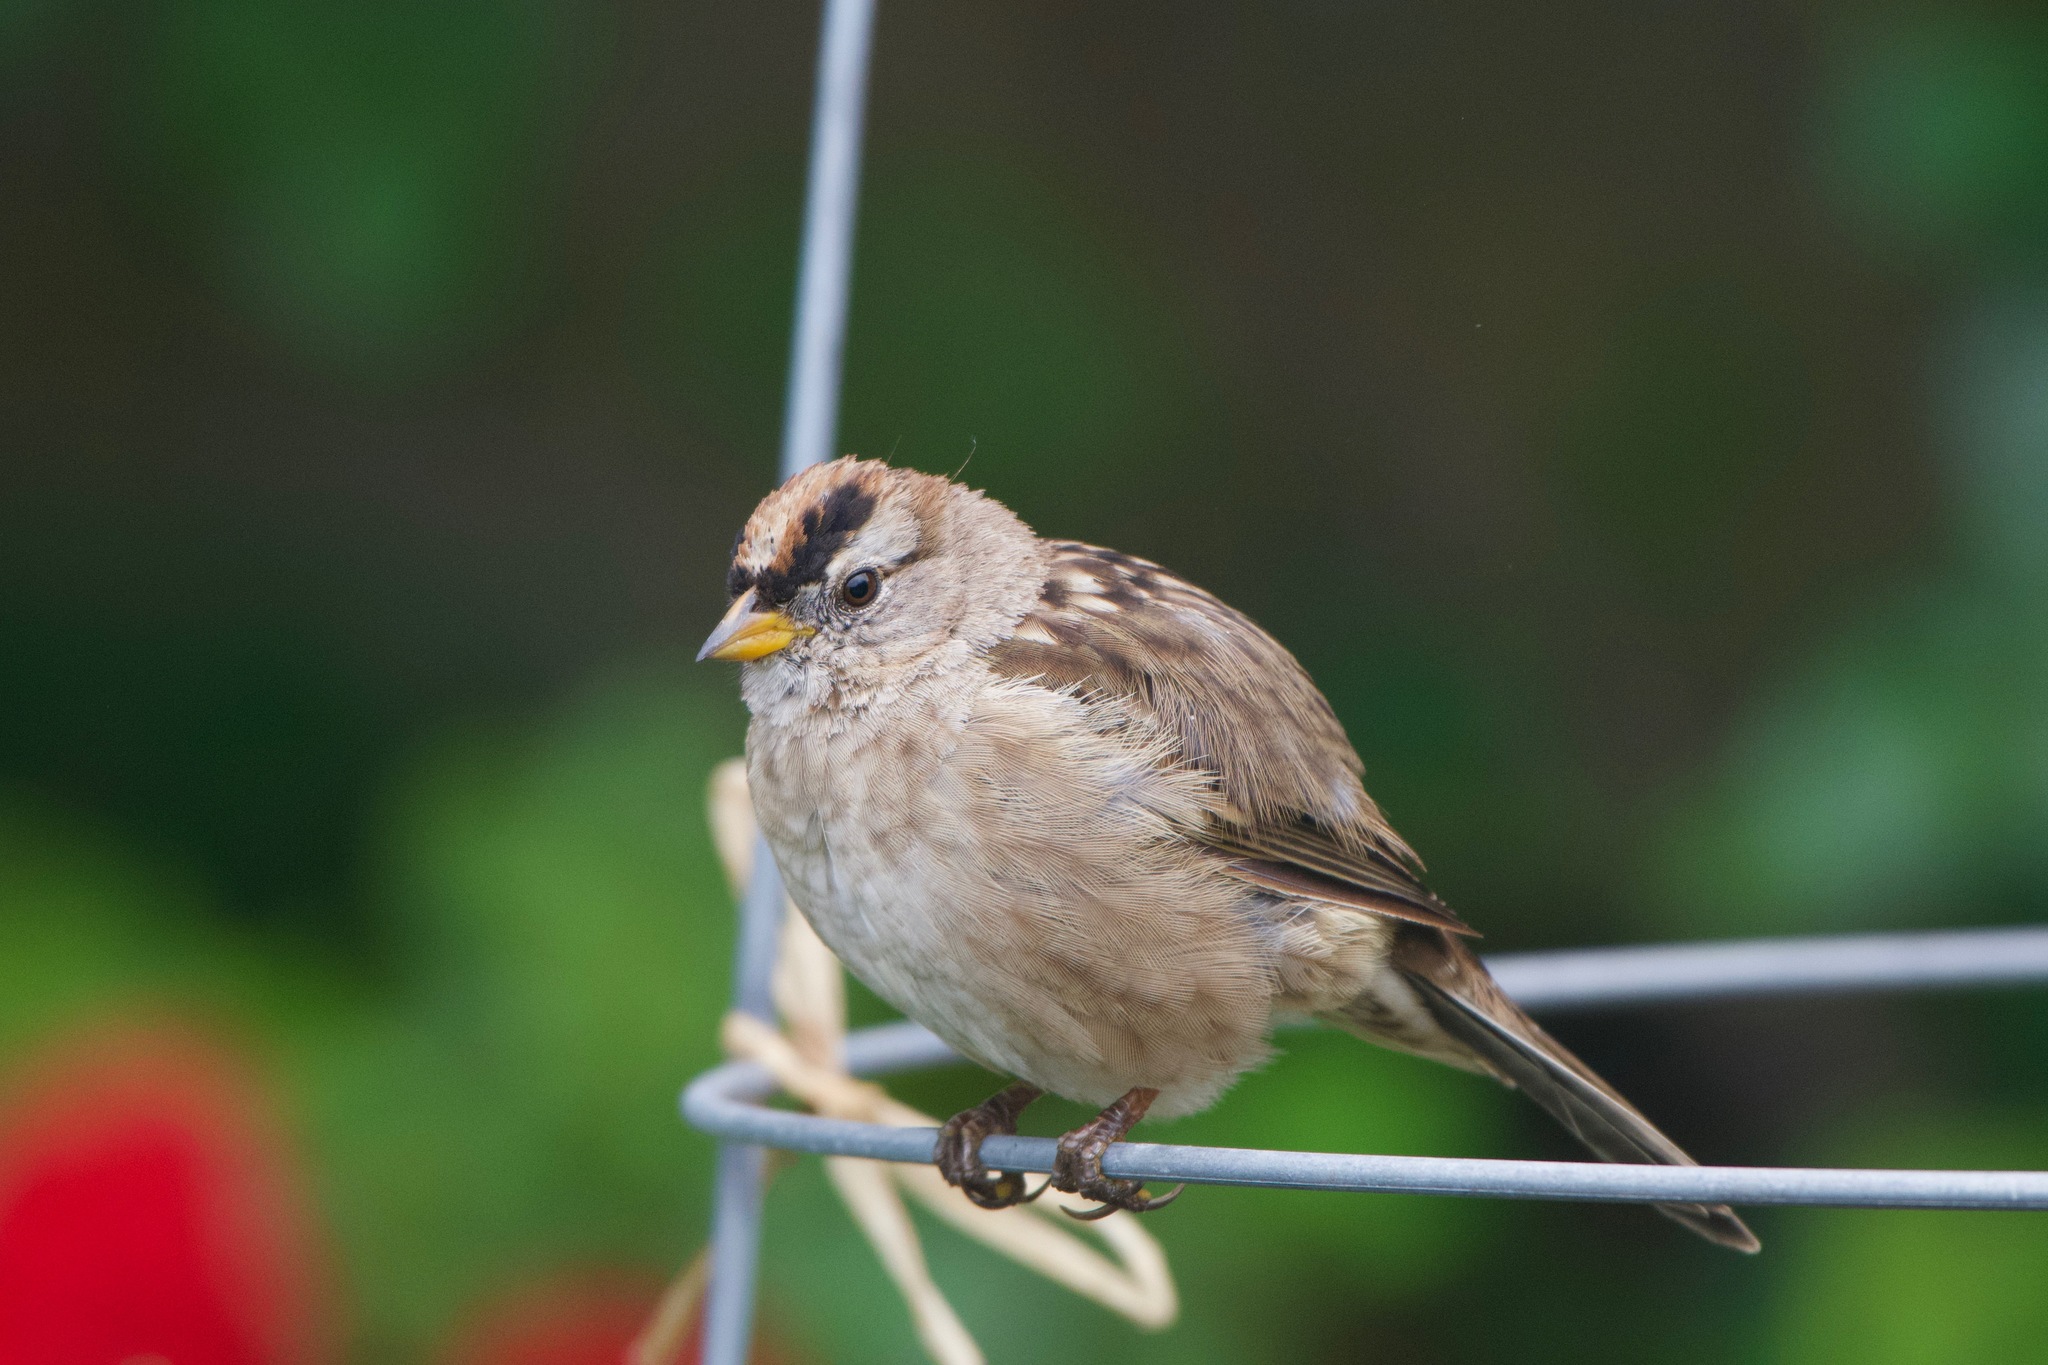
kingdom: Animalia
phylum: Chordata
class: Aves
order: Passeriformes
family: Passerellidae
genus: Zonotrichia
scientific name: Zonotrichia leucophrys
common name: White-crowned sparrow
